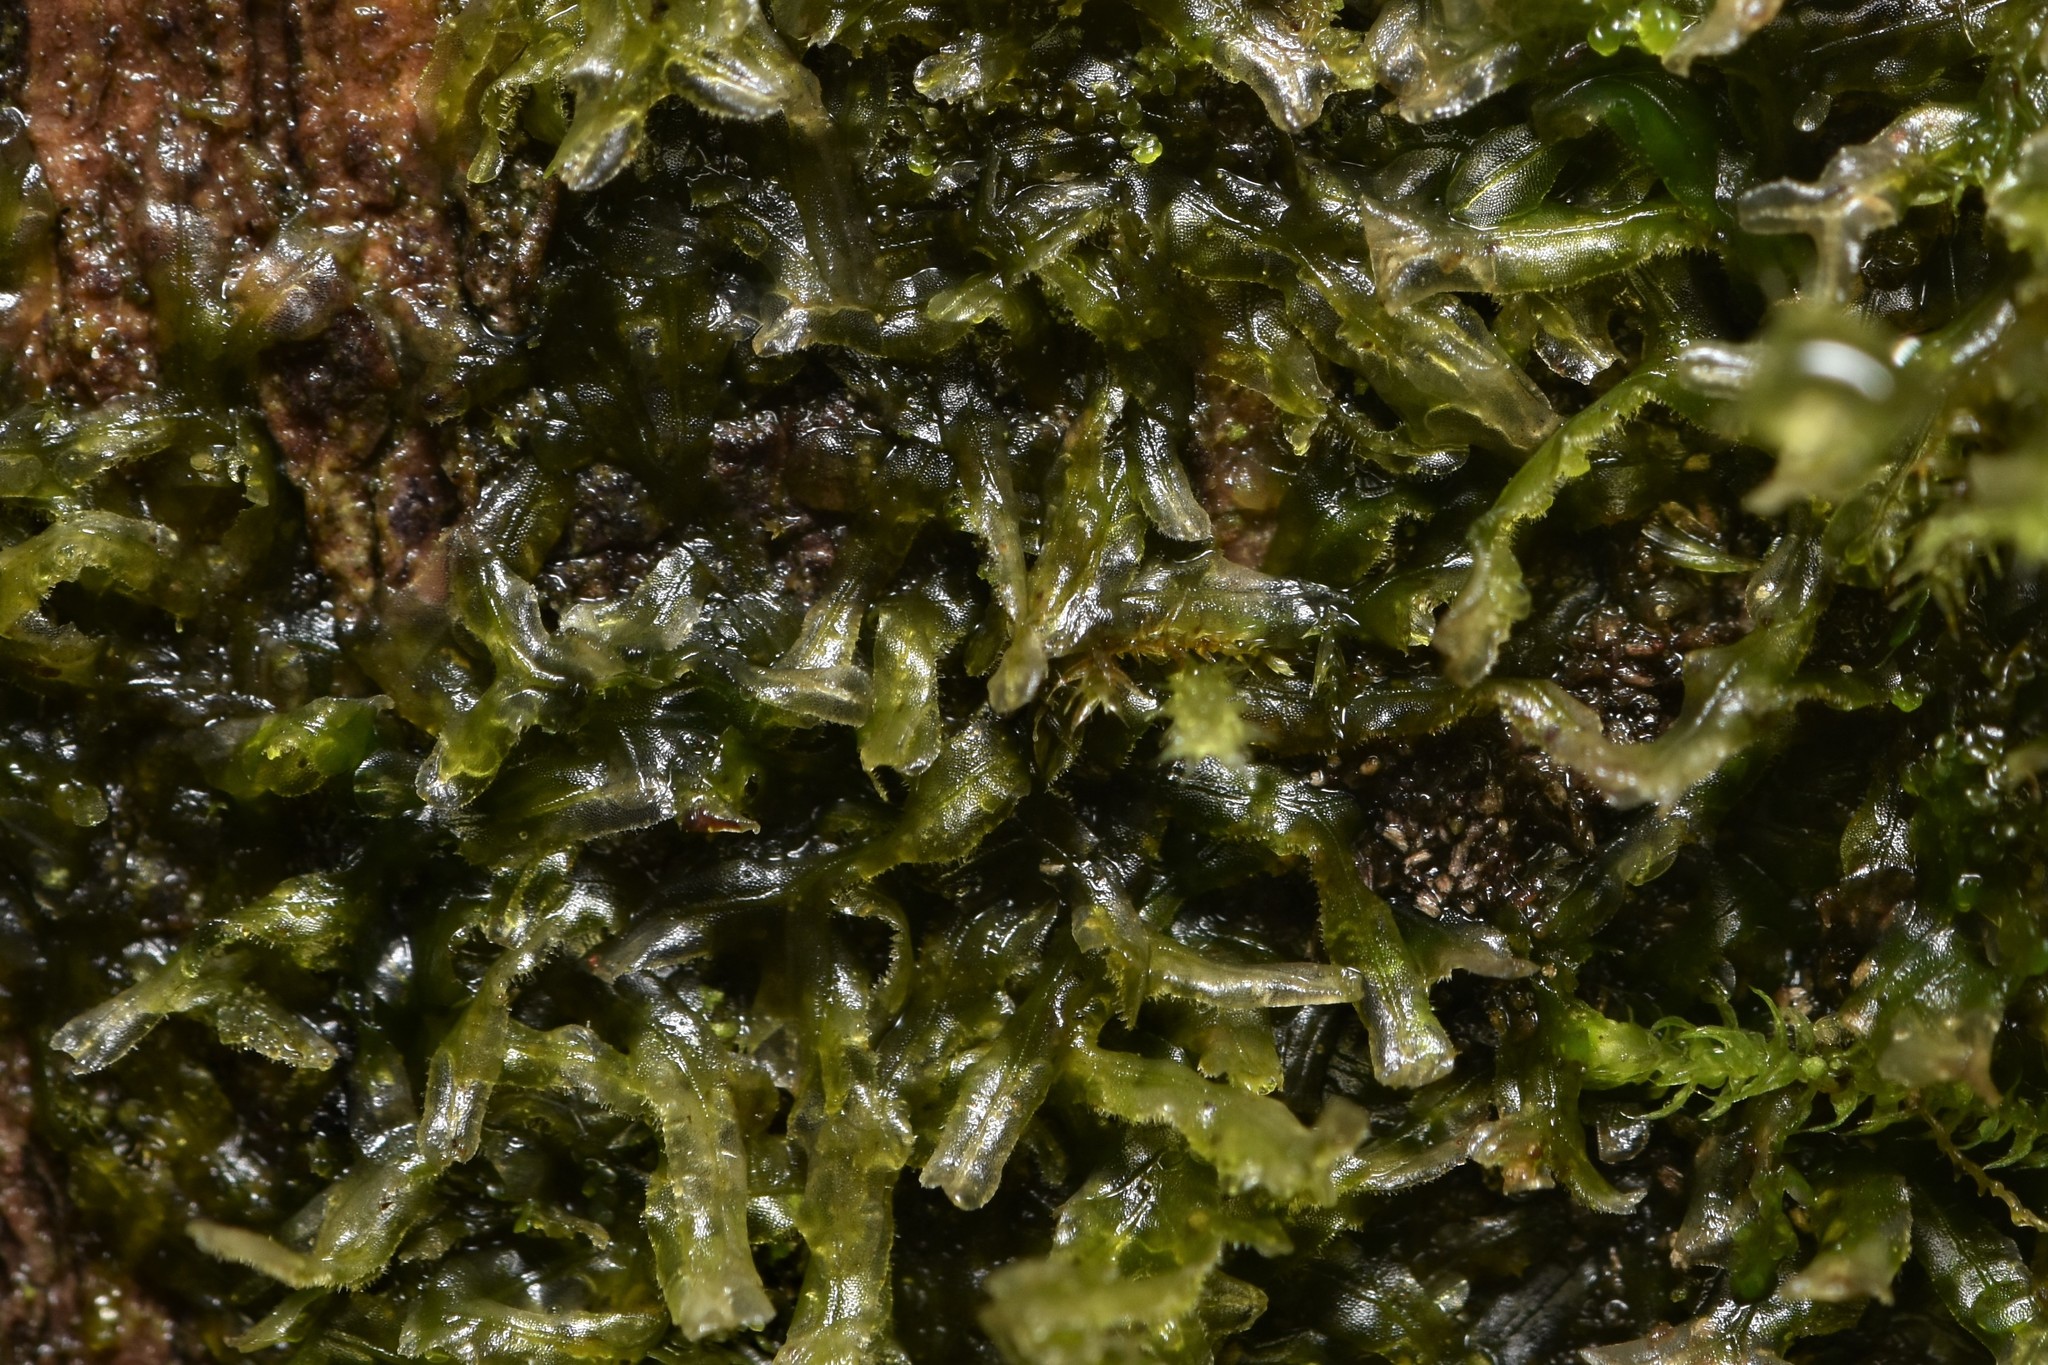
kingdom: Plantae
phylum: Marchantiophyta
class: Jungermanniopsida
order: Metzgeriales
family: Metzgeriaceae
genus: Metzgeria
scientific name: Metzgeria conjugata
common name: Rock veilwort
